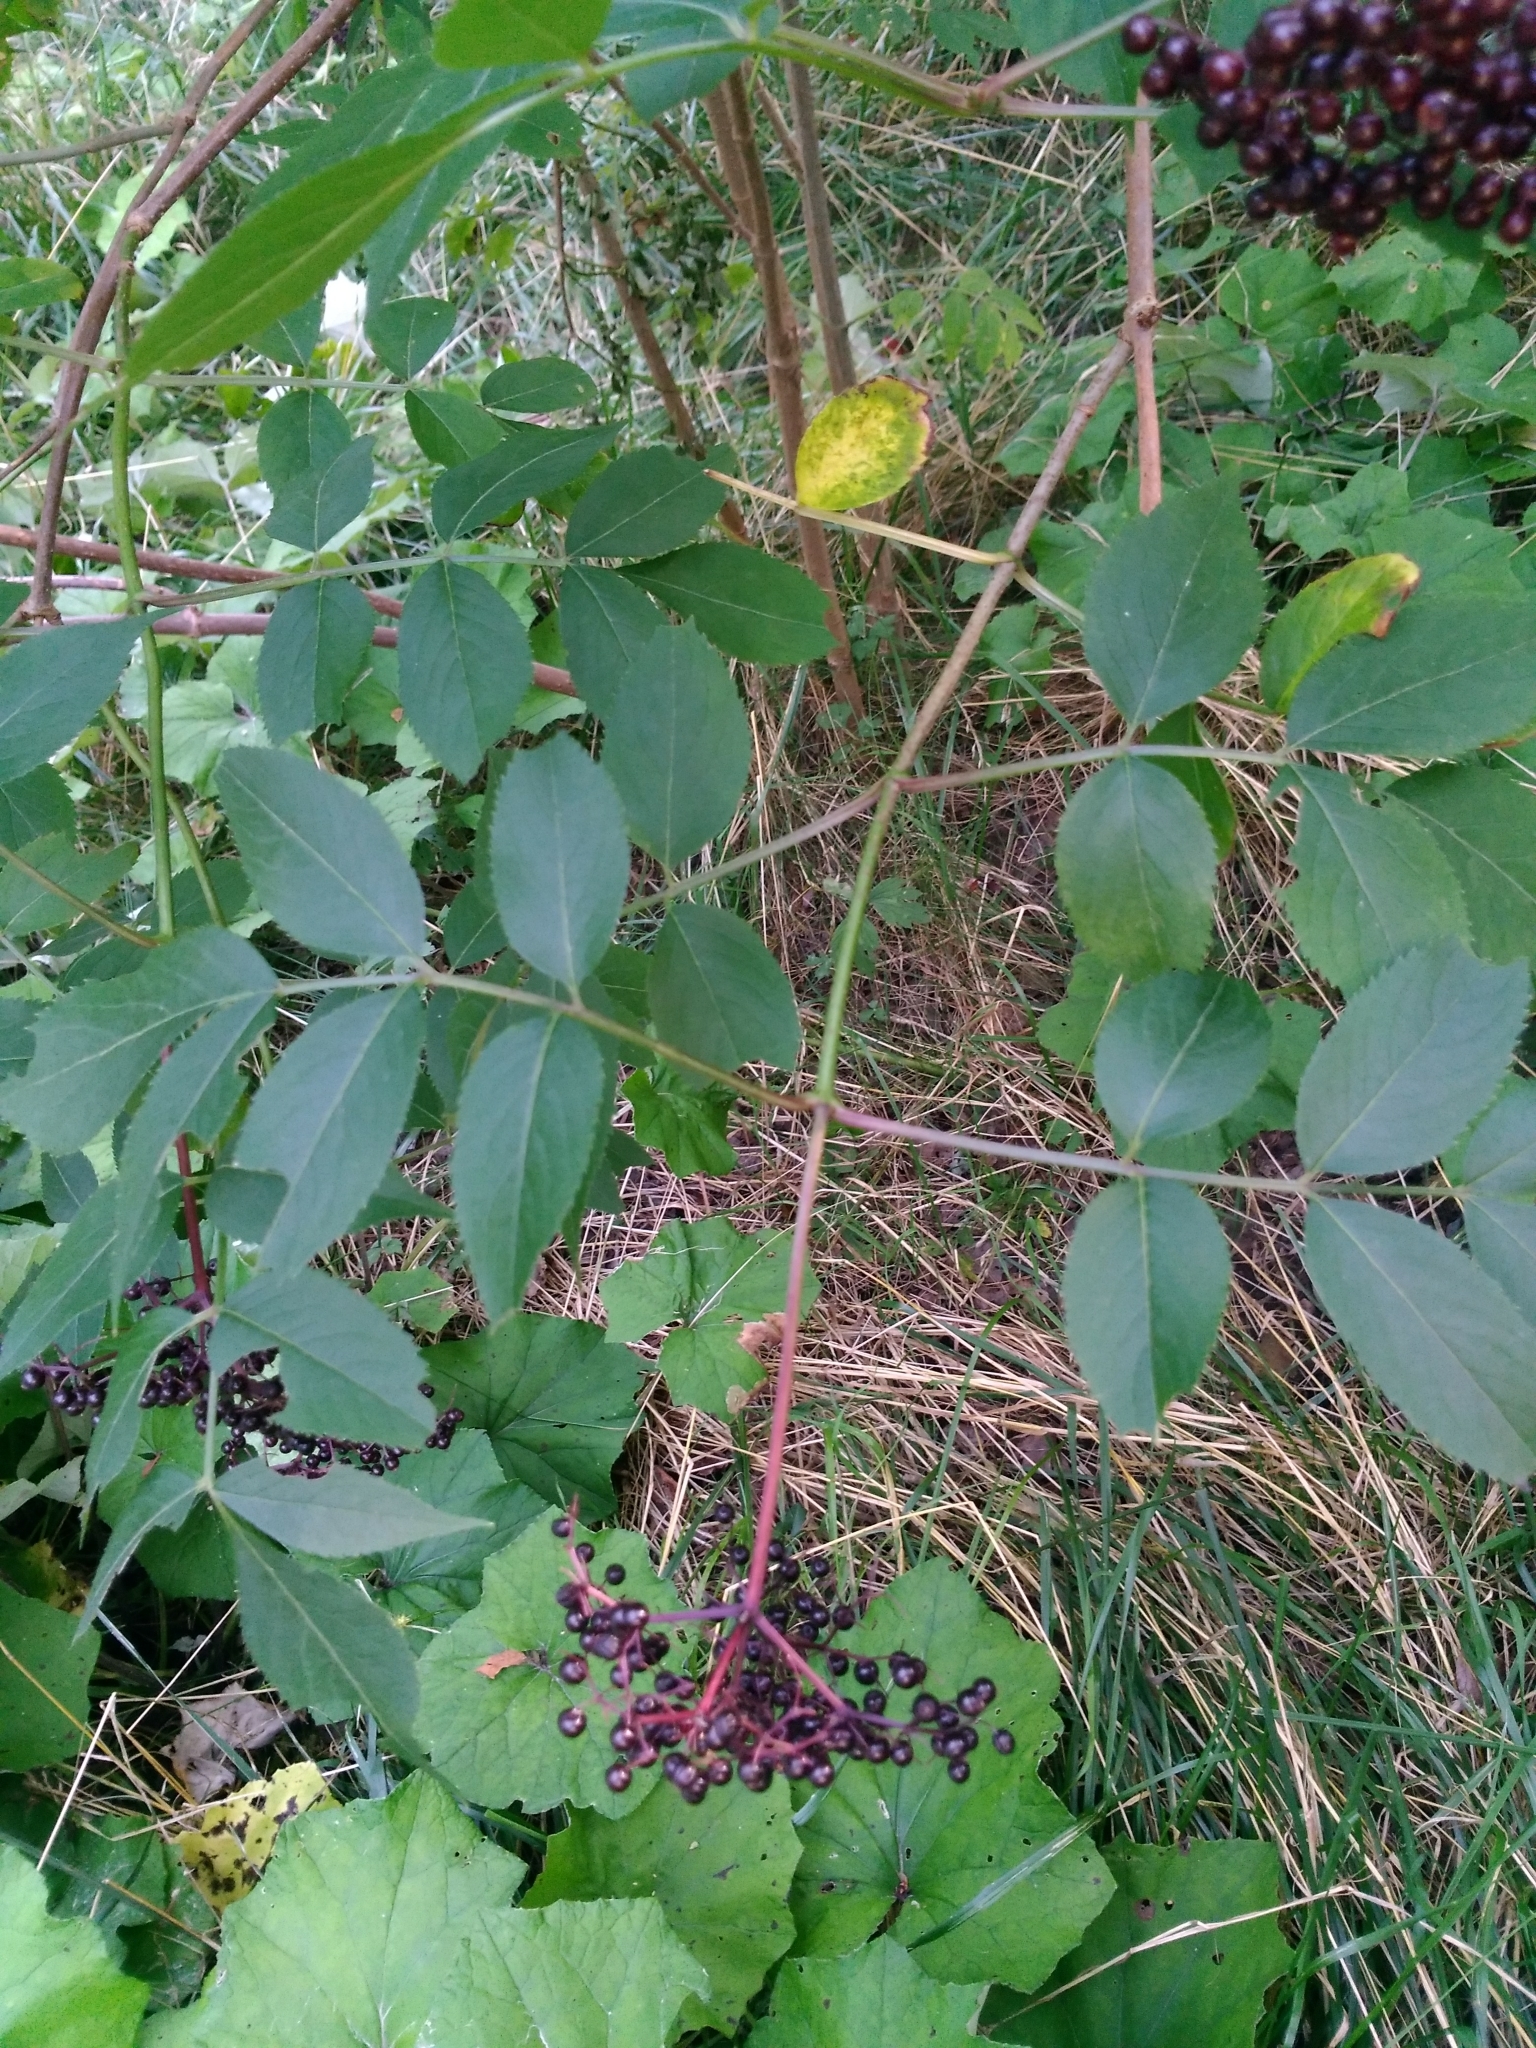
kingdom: Plantae
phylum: Tracheophyta
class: Magnoliopsida
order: Dipsacales
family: Viburnaceae
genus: Sambucus
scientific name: Sambucus canadensis
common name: American elder
